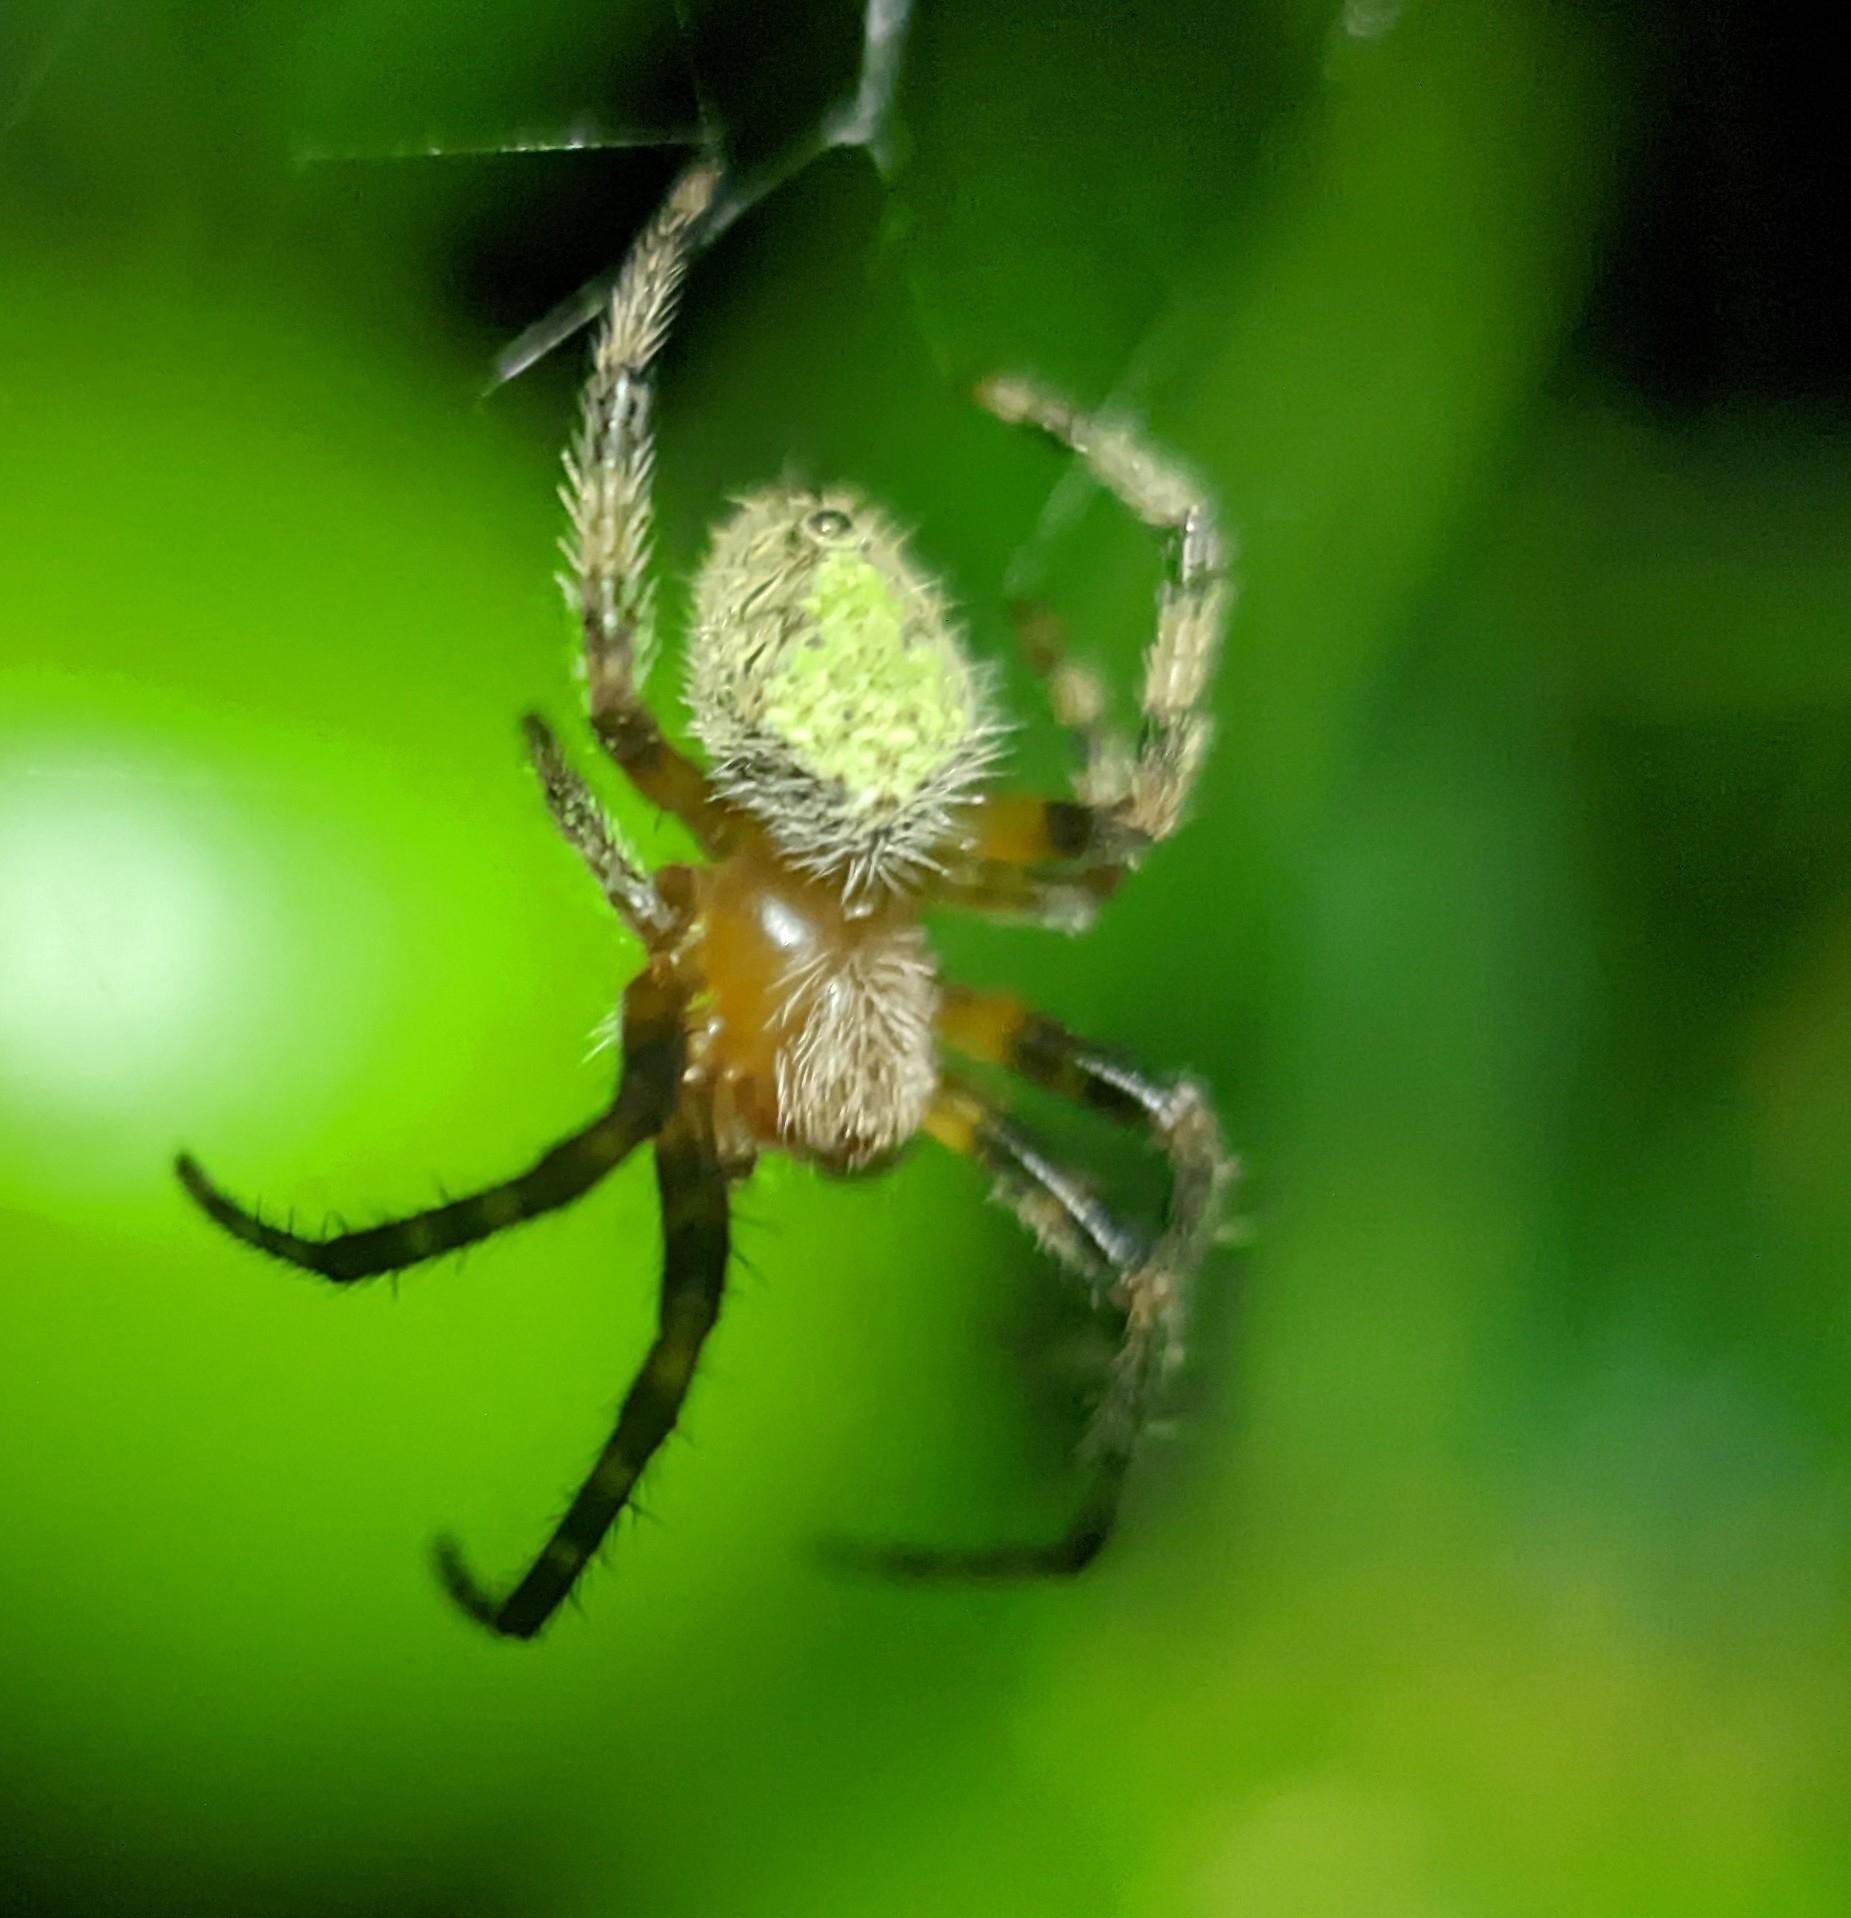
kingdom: Animalia
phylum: Arthropoda
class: Arachnida
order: Araneae
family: Araneidae
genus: Eriophora
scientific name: Eriophora ravilla
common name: Orb weavers
